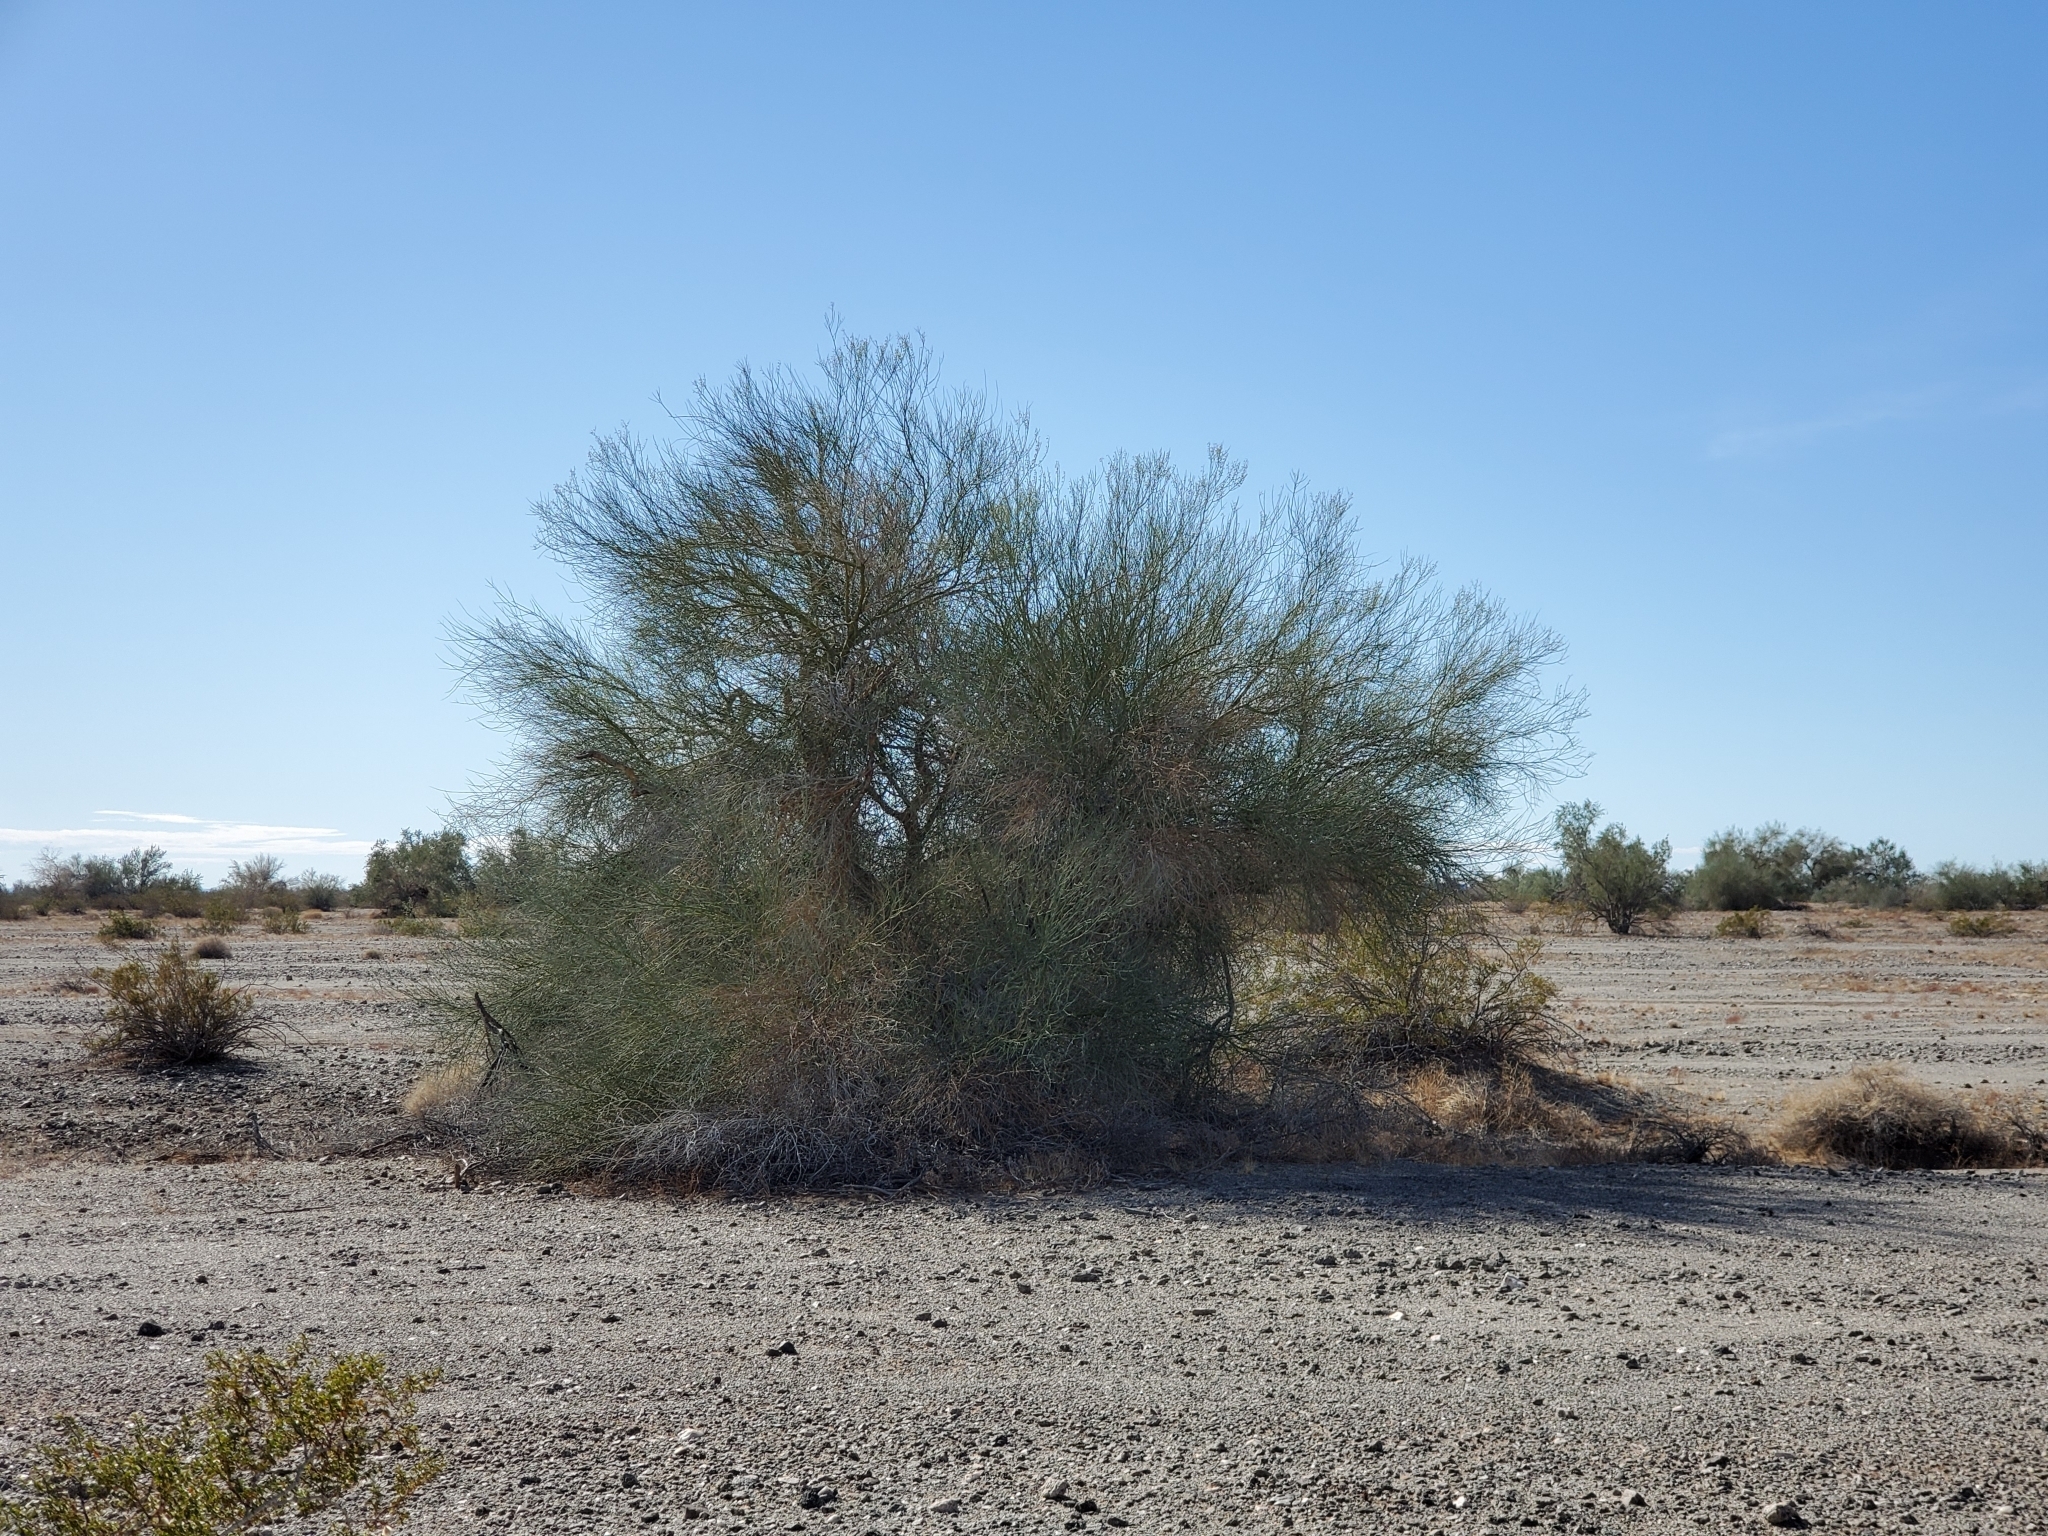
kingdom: Plantae
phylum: Tracheophyta
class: Magnoliopsida
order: Fabales
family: Fabaceae
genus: Parkinsonia
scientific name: Parkinsonia florida
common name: Blue paloverde
